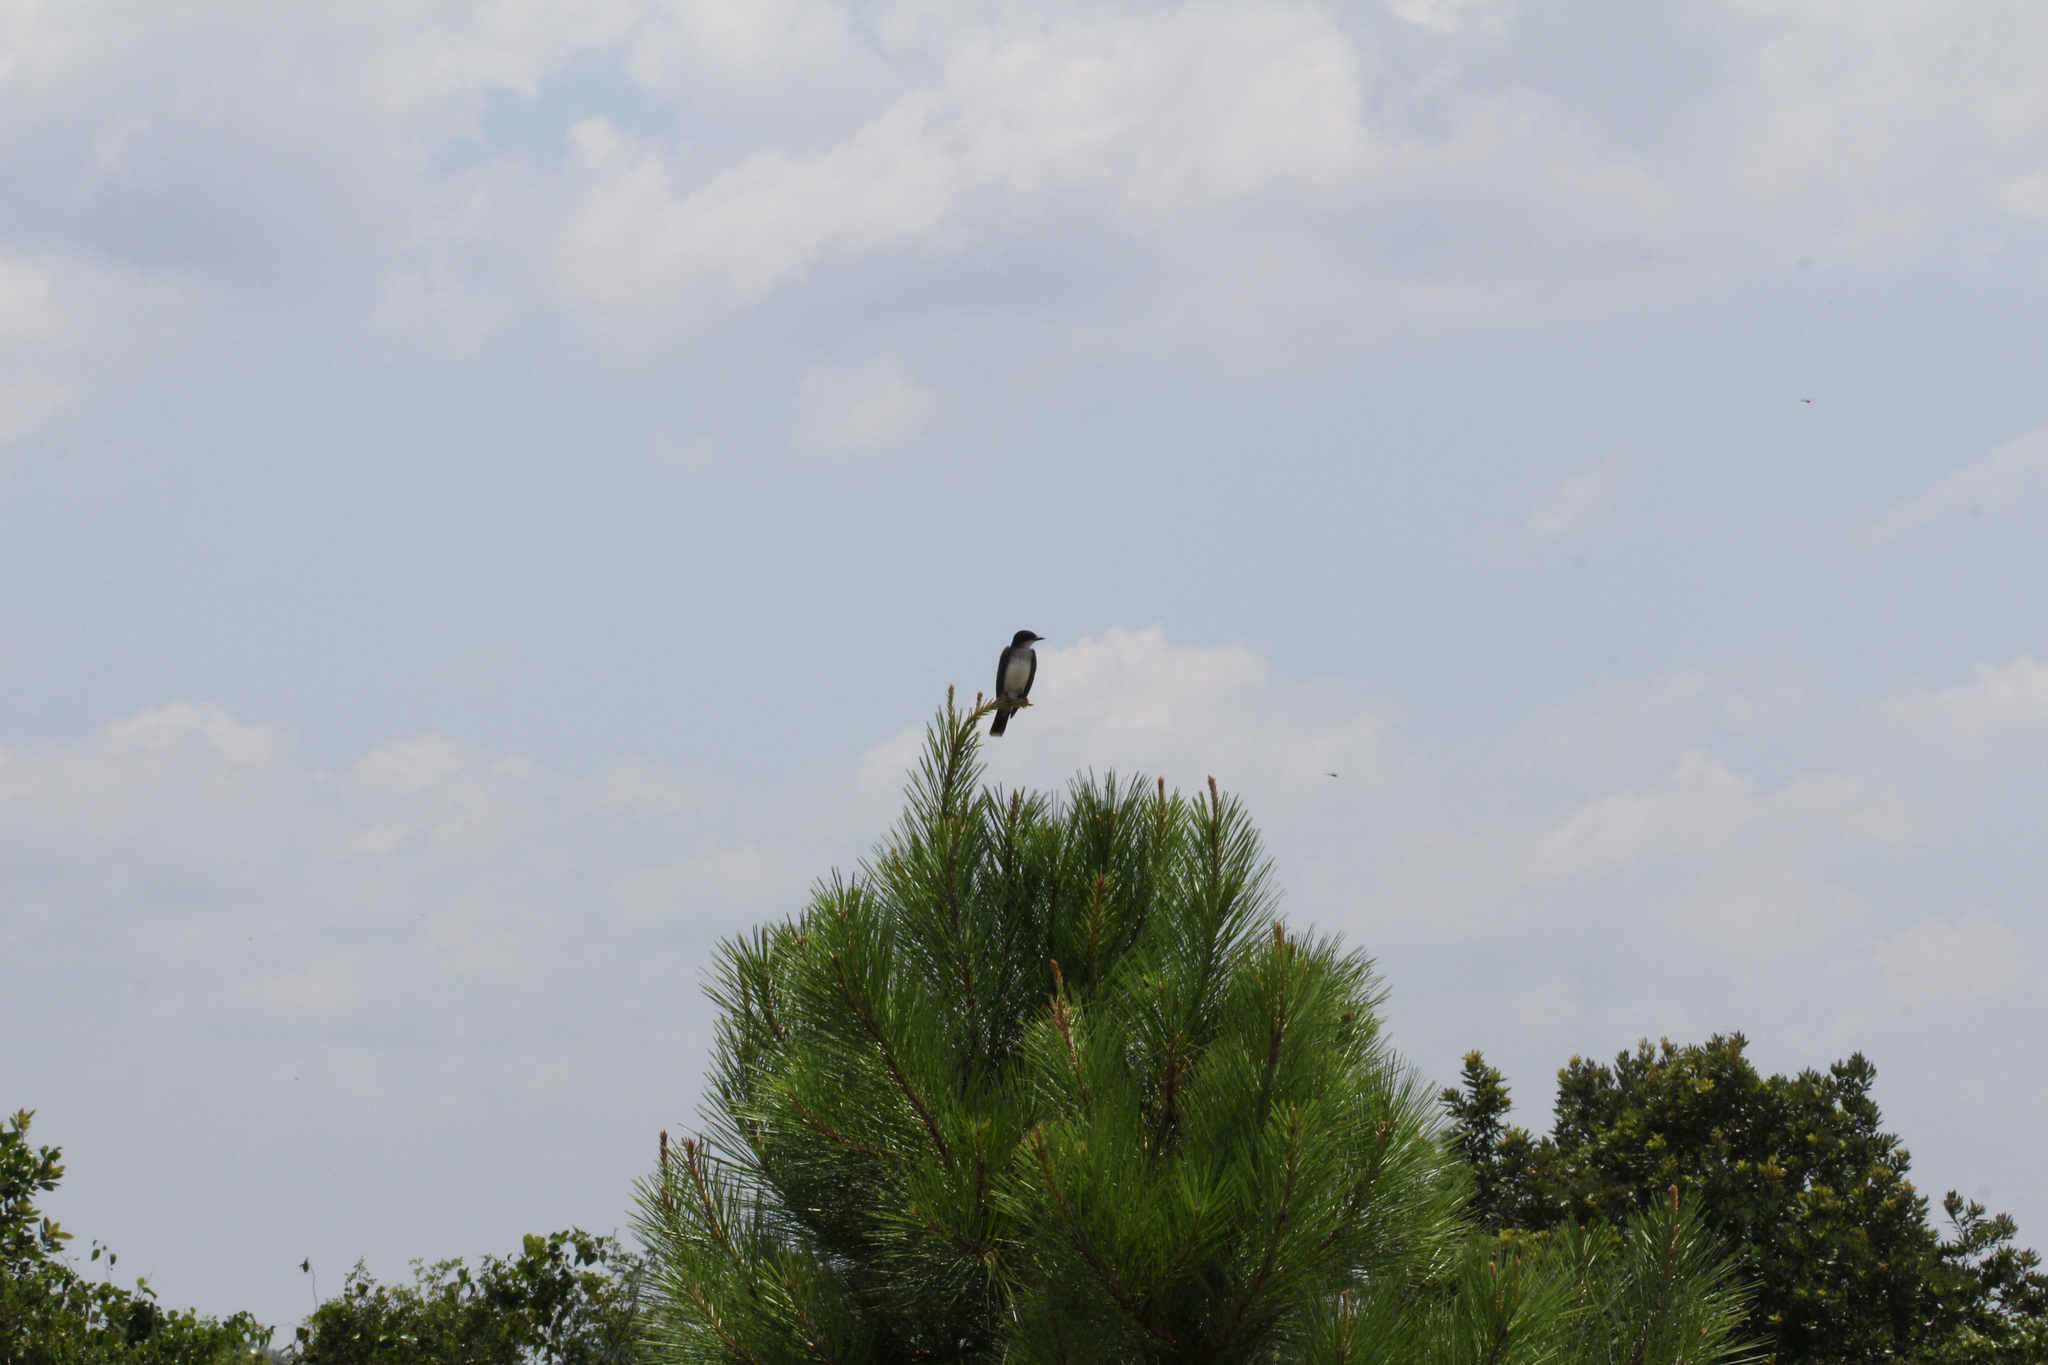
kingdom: Animalia
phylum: Chordata
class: Aves
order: Passeriformes
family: Tyrannidae
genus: Tyrannus
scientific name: Tyrannus tyrannus
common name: Eastern kingbird
